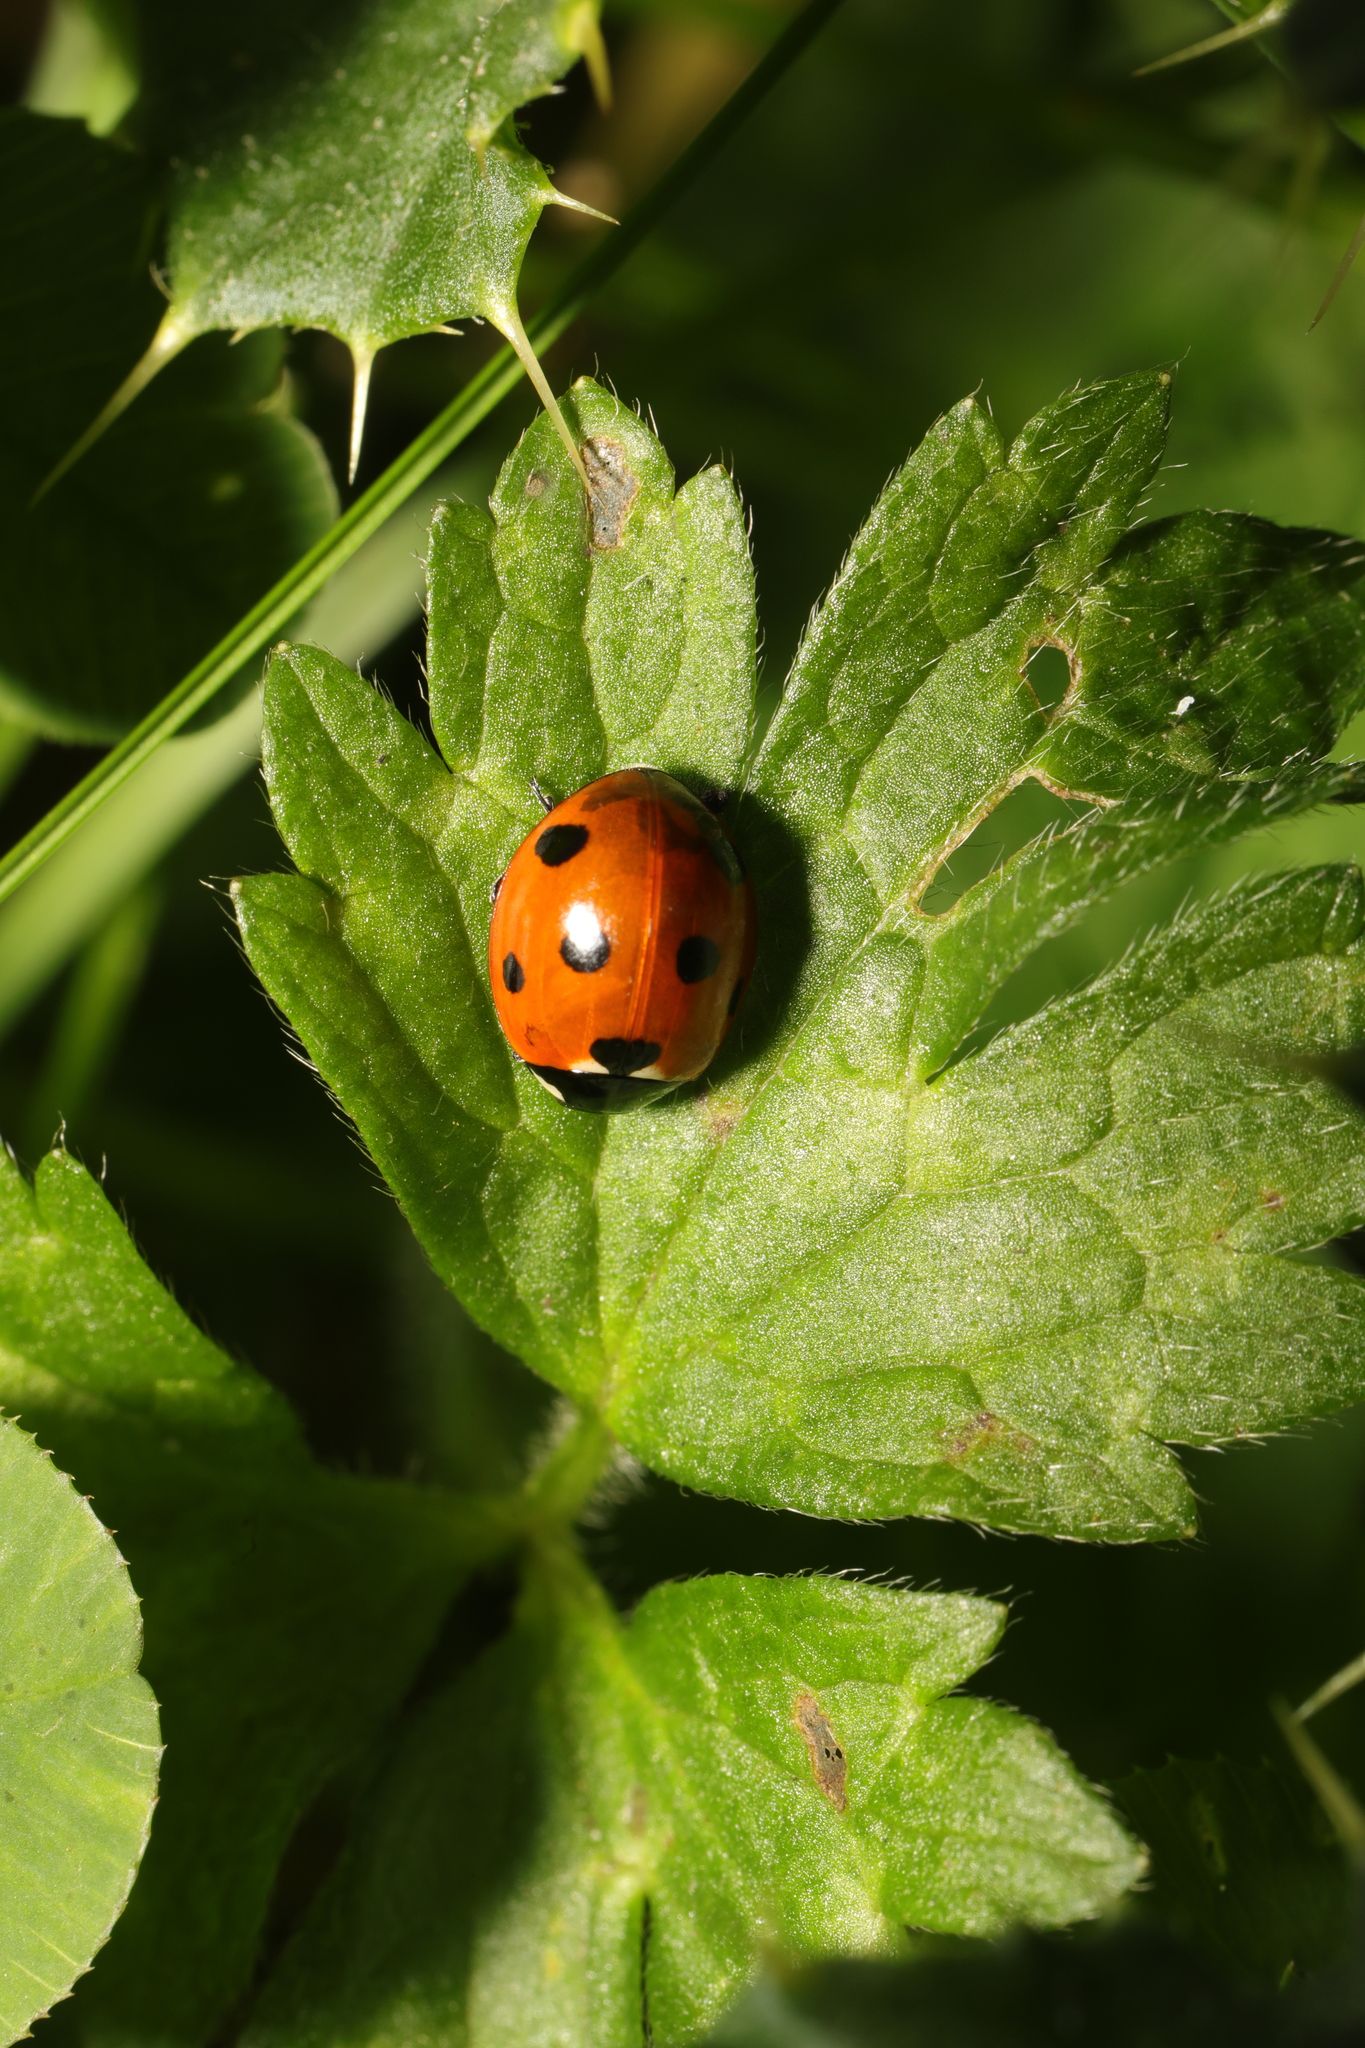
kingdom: Animalia
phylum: Arthropoda
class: Insecta
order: Coleoptera
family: Coccinellidae
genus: Coccinella
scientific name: Coccinella septempunctata
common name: Sevenspotted lady beetle
